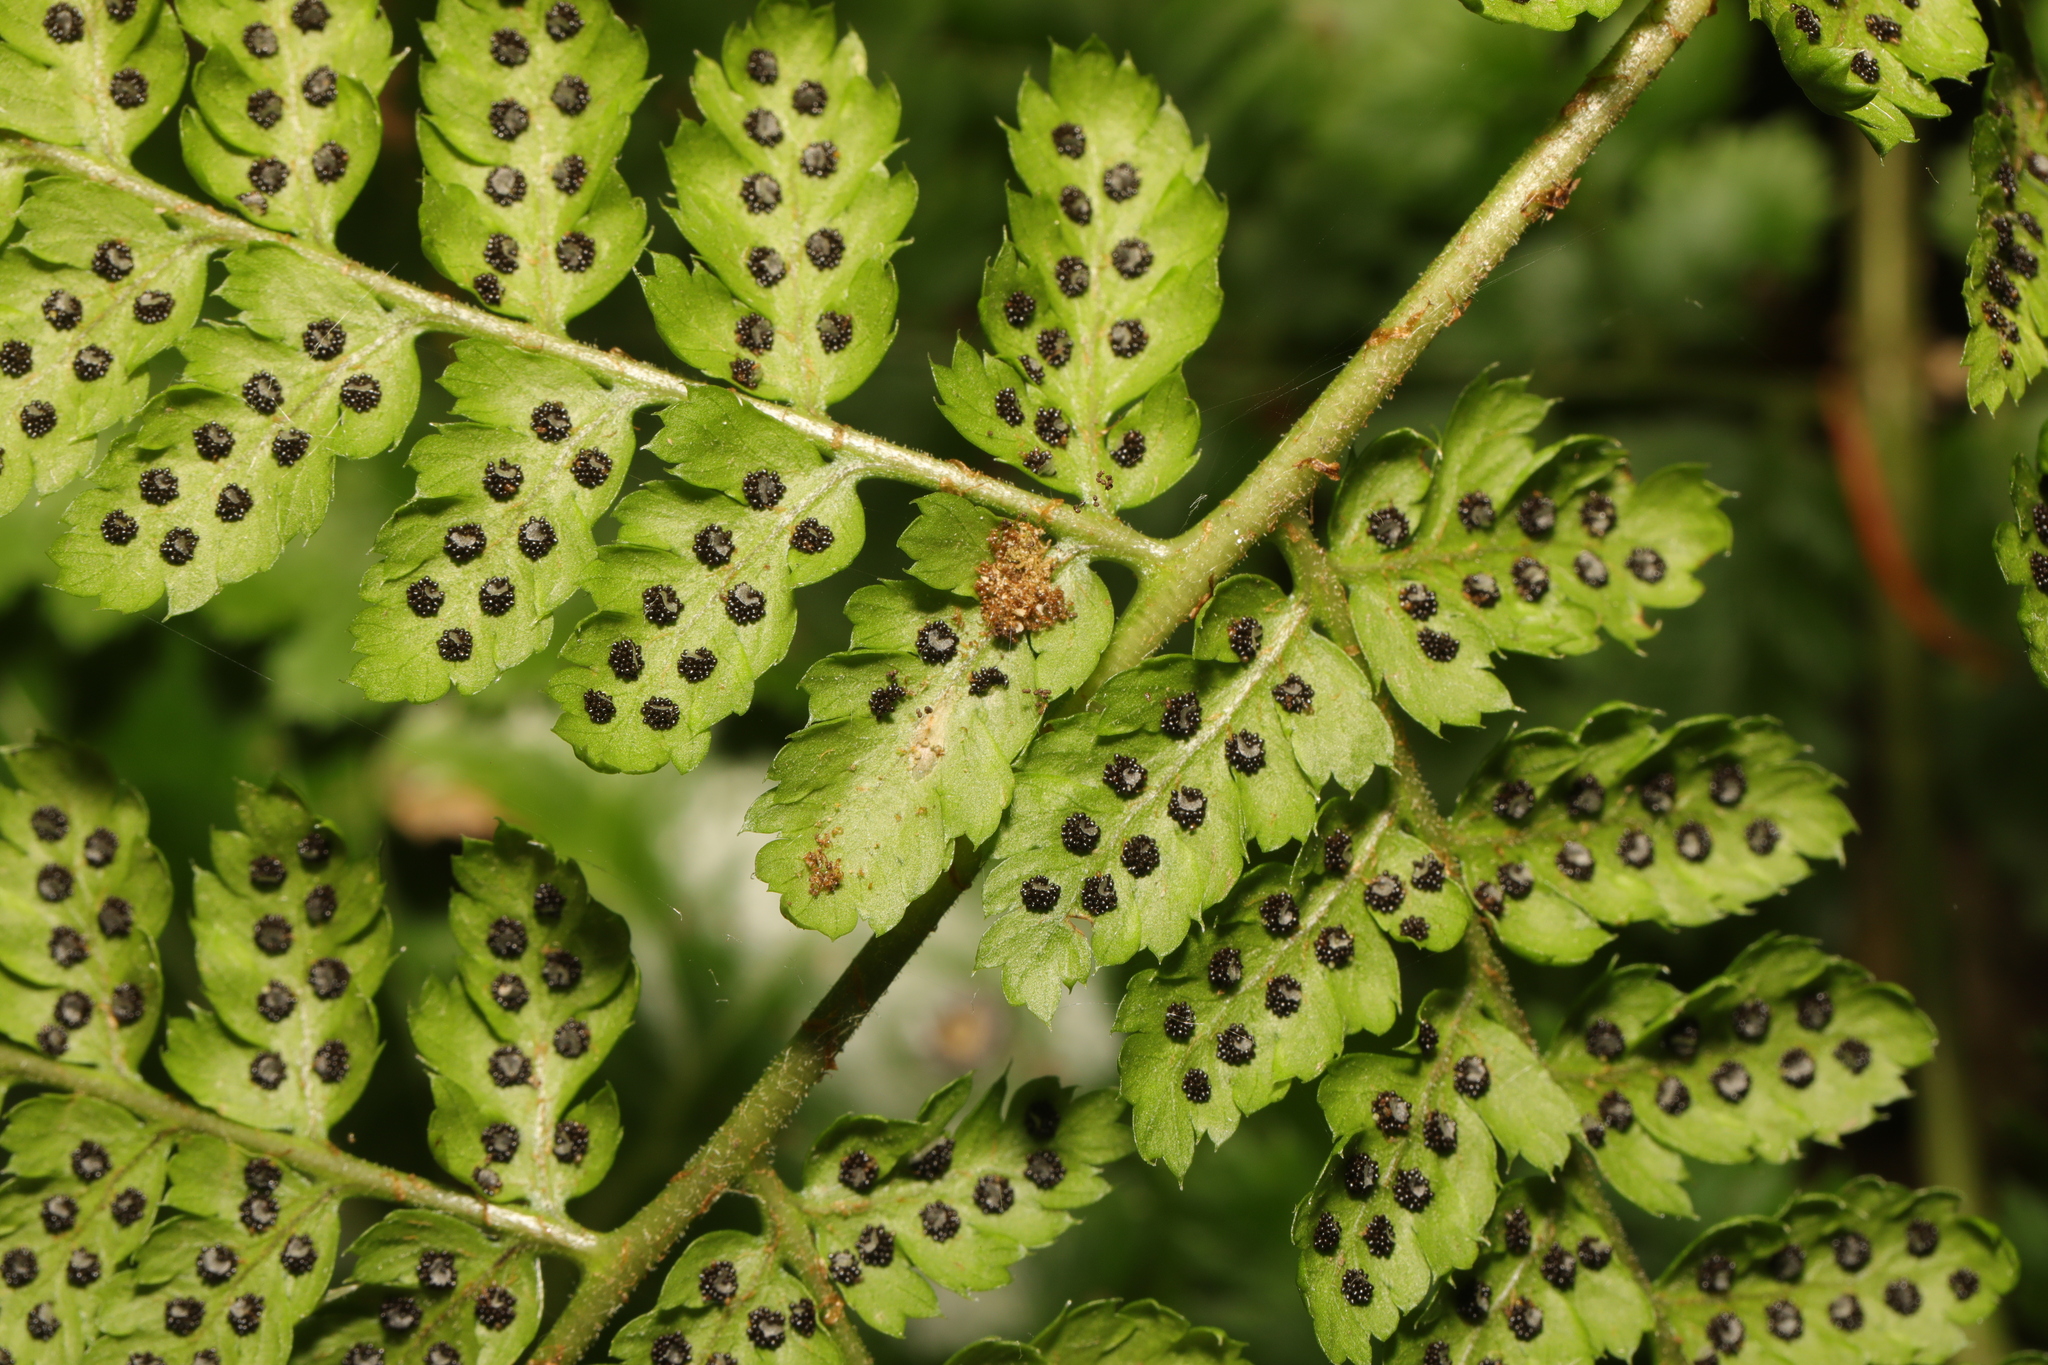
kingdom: Plantae
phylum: Tracheophyta
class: Polypodiopsida
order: Polypodiales
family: Dryopteridaceae
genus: Dryopteris
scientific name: Dryopteris dilatata
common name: Broad buckler-fern
